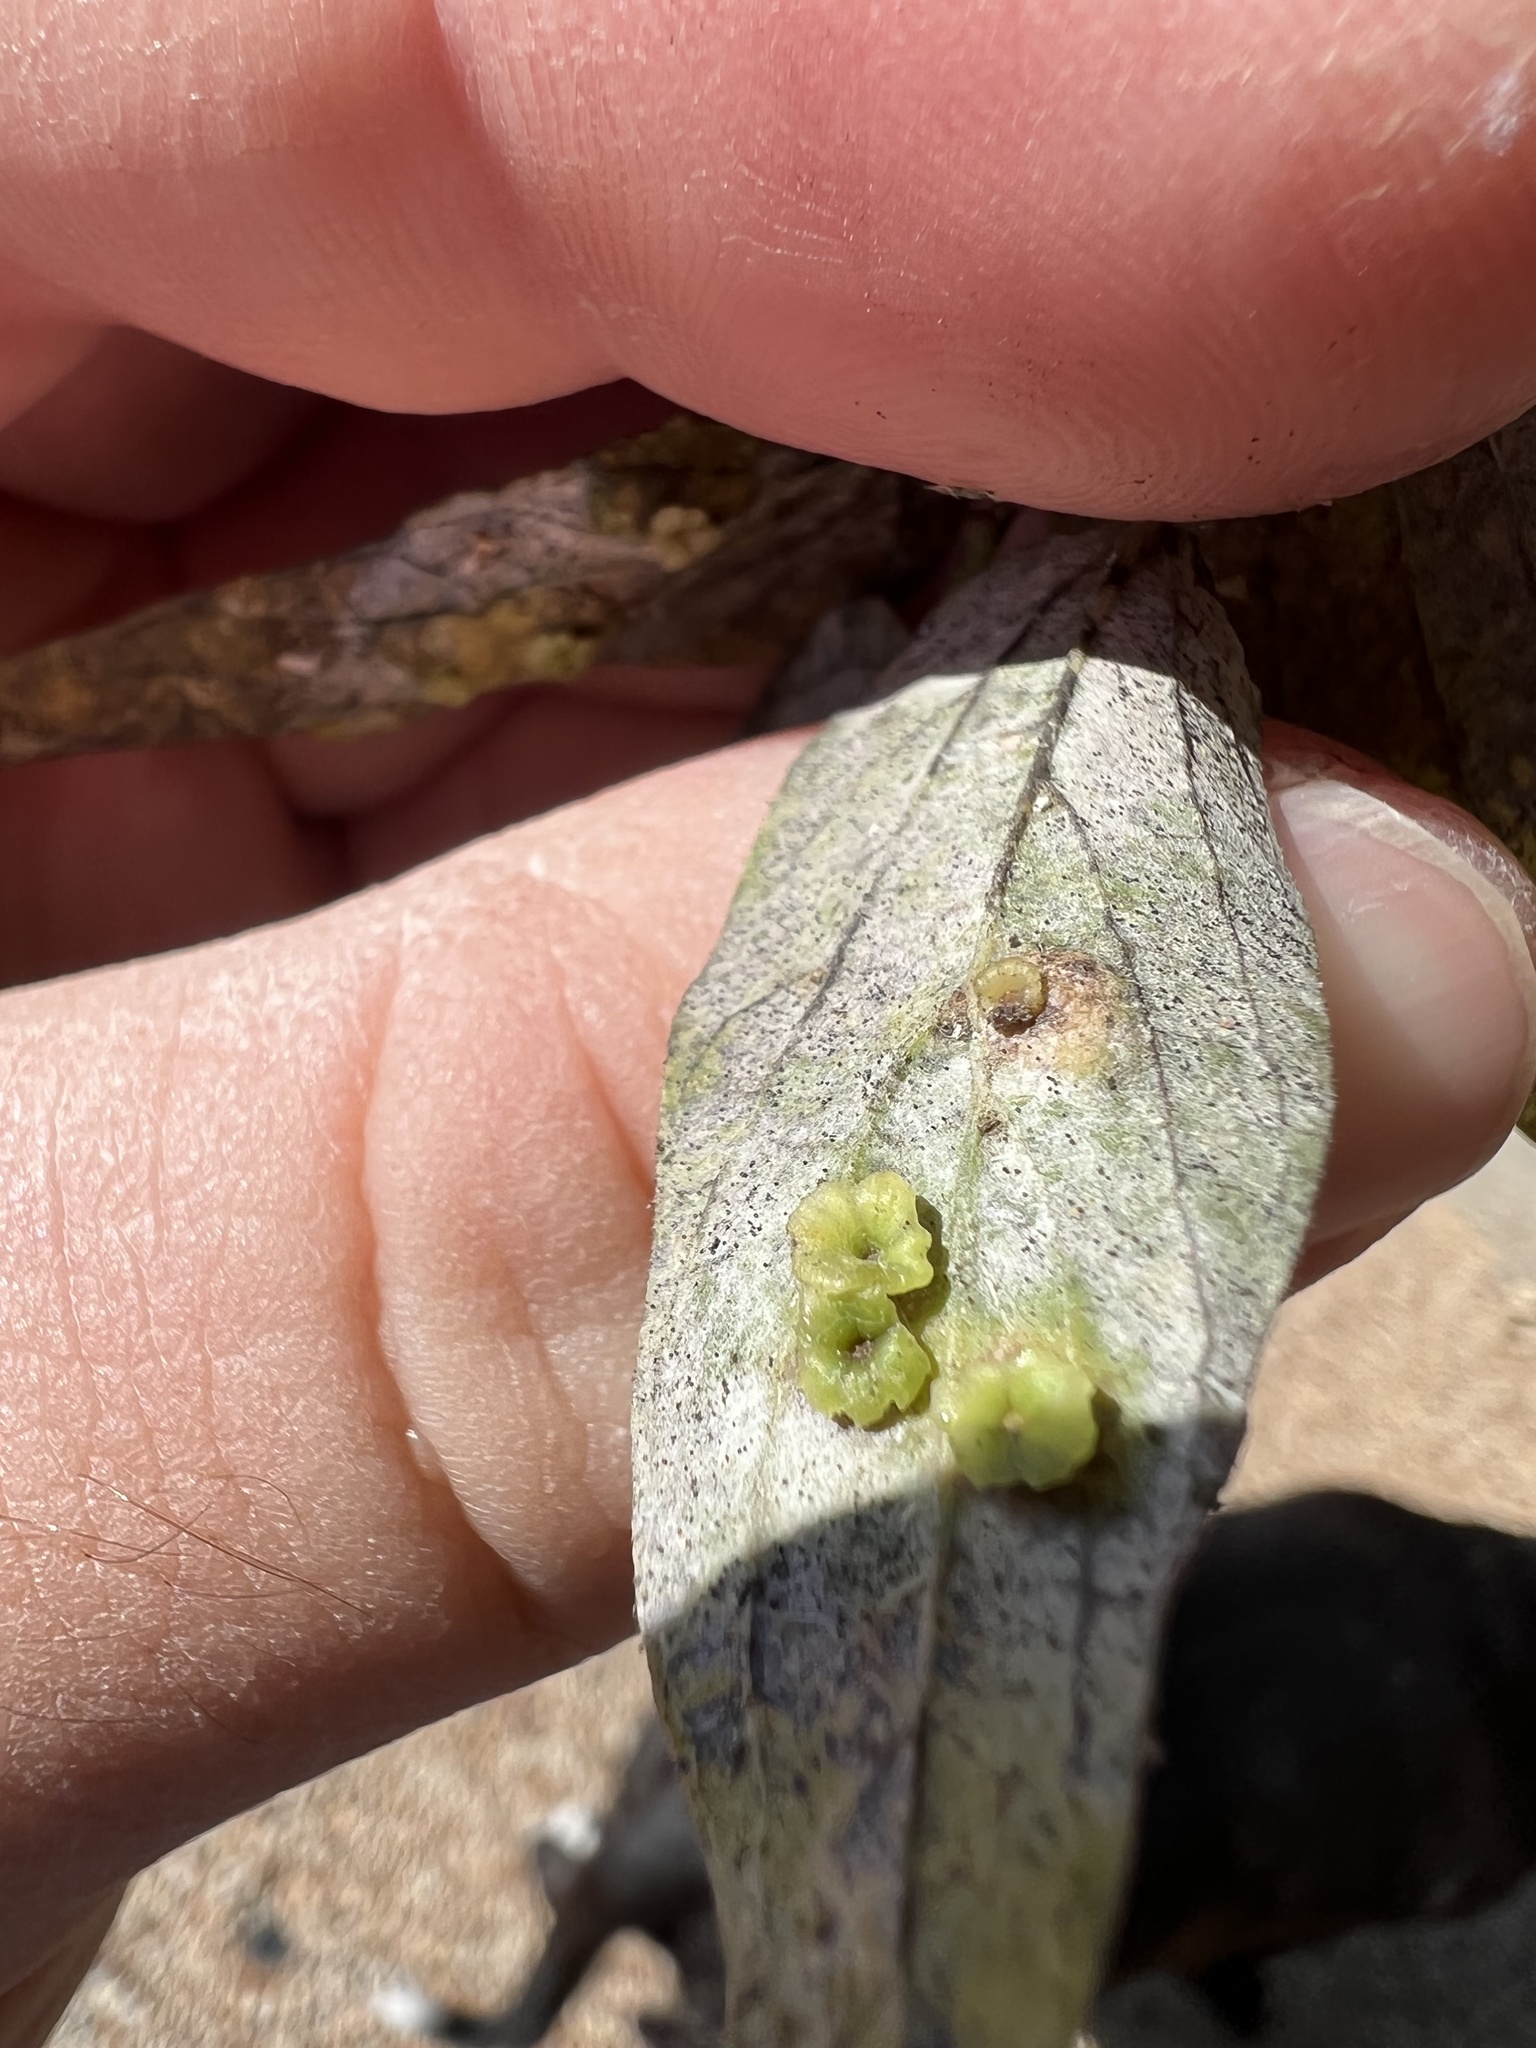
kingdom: Animalia
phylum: Arthropoda
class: Insecta
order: Hemiptera
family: Aphalaridae
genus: Pachypsylla
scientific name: Pachypsylla celtidisasterisca
